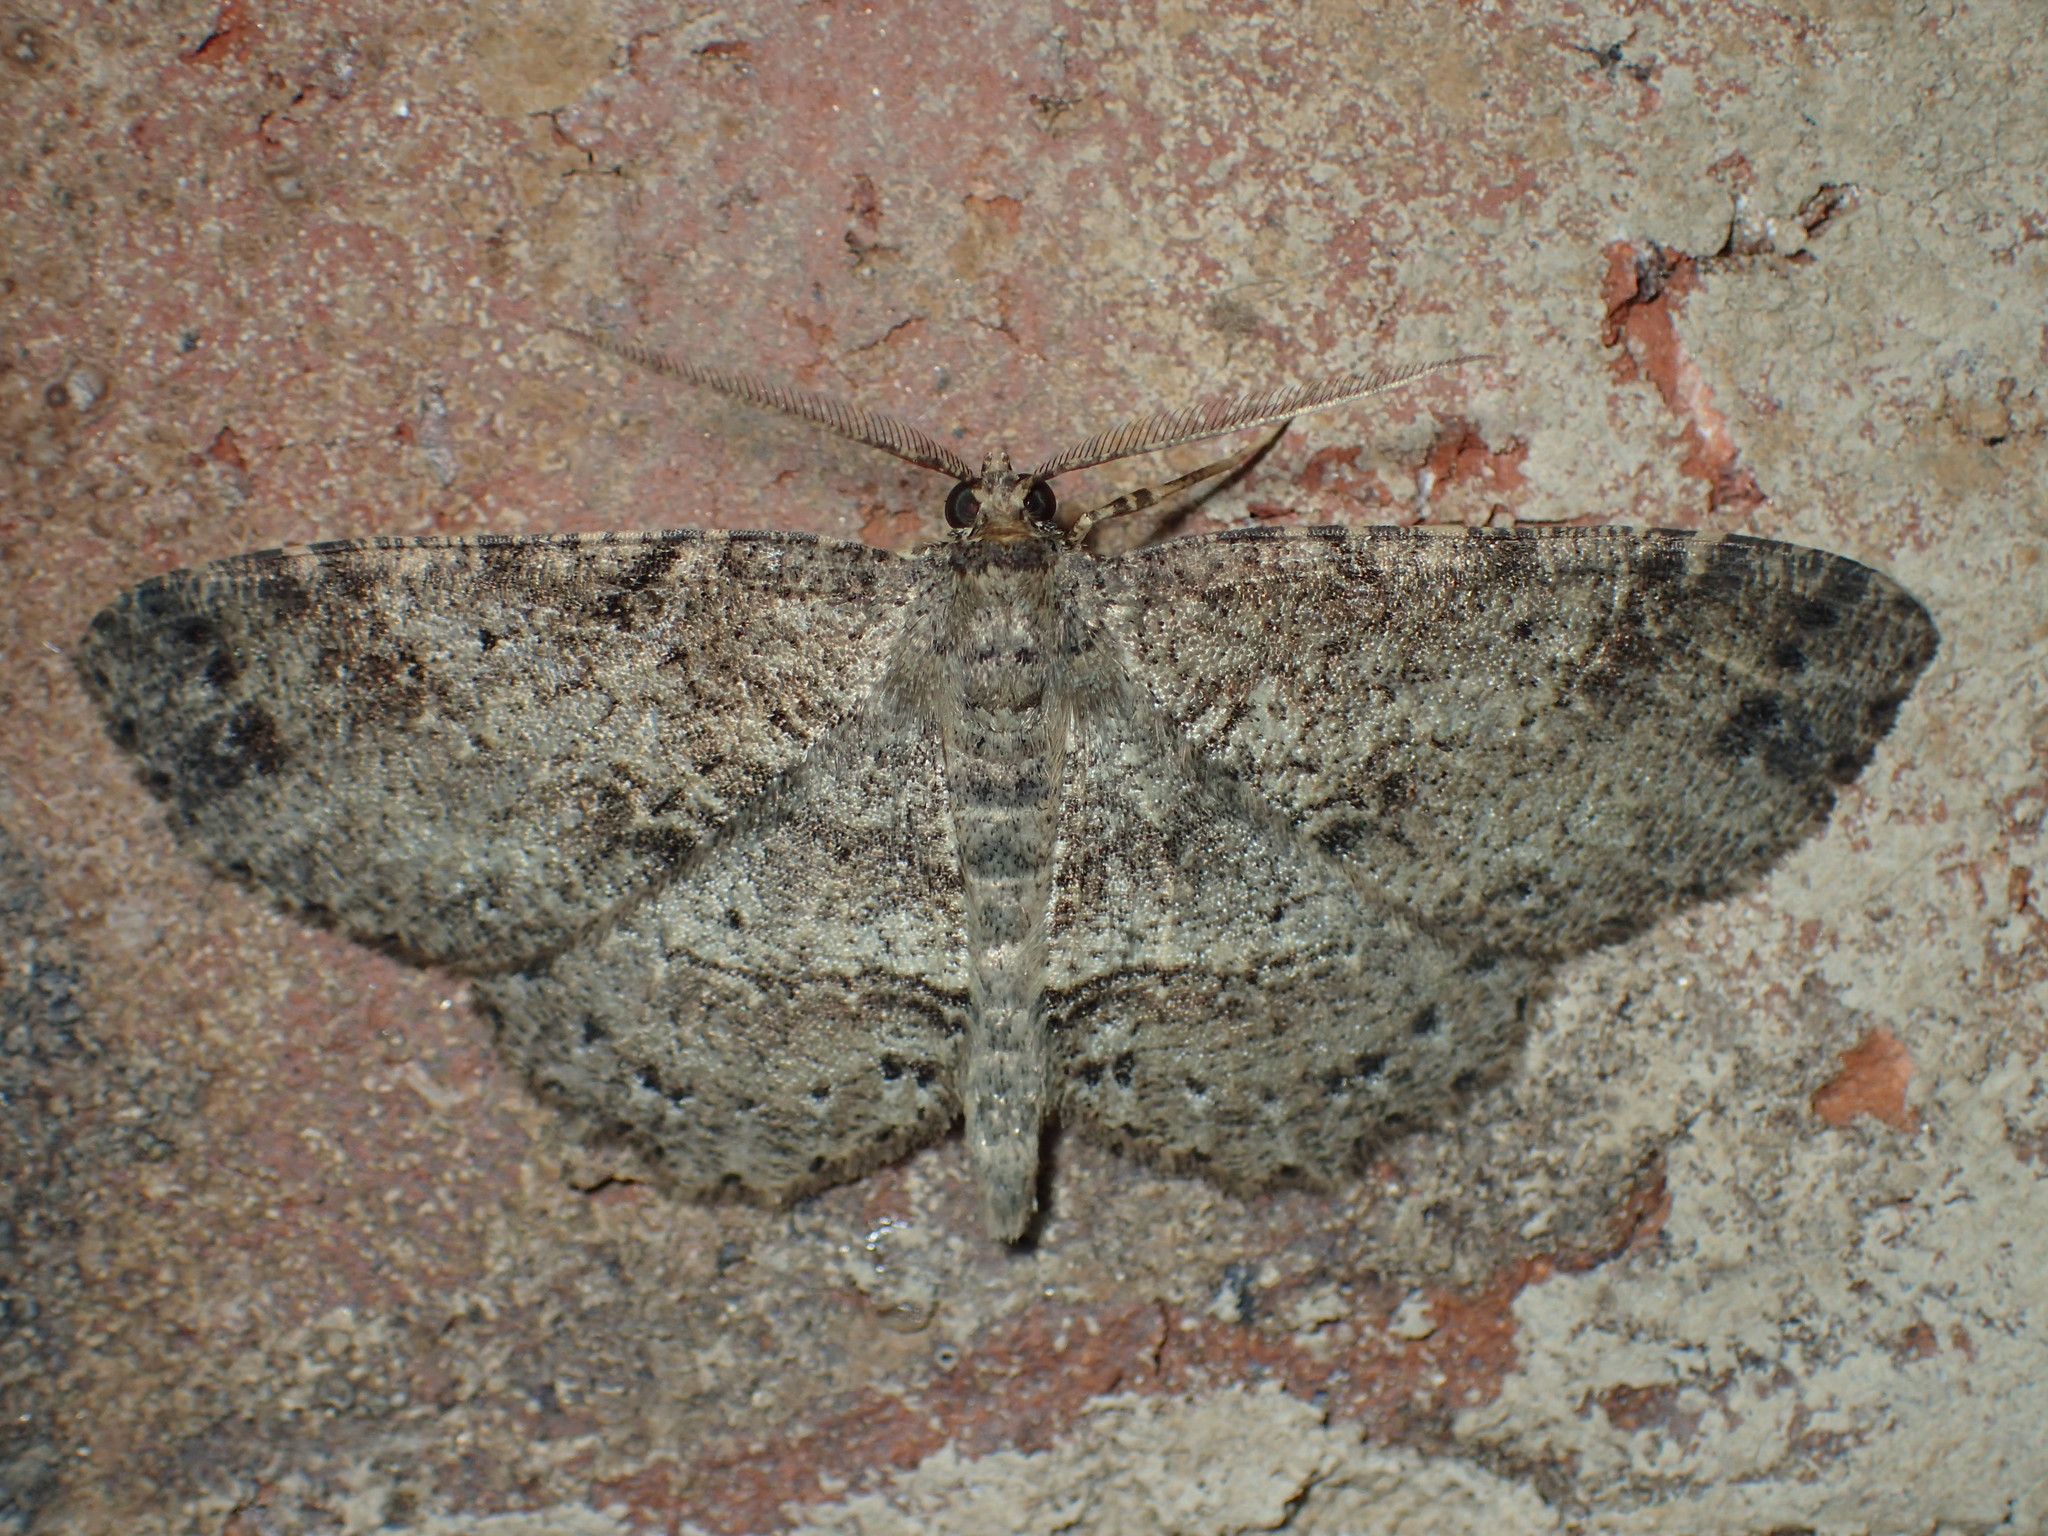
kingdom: Animalia
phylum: Arthropoda
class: Insecta
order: Lepidoptera
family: Geometridae
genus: Melanolophia
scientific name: Melanolophia canadaria
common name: Canadian melanolophia
